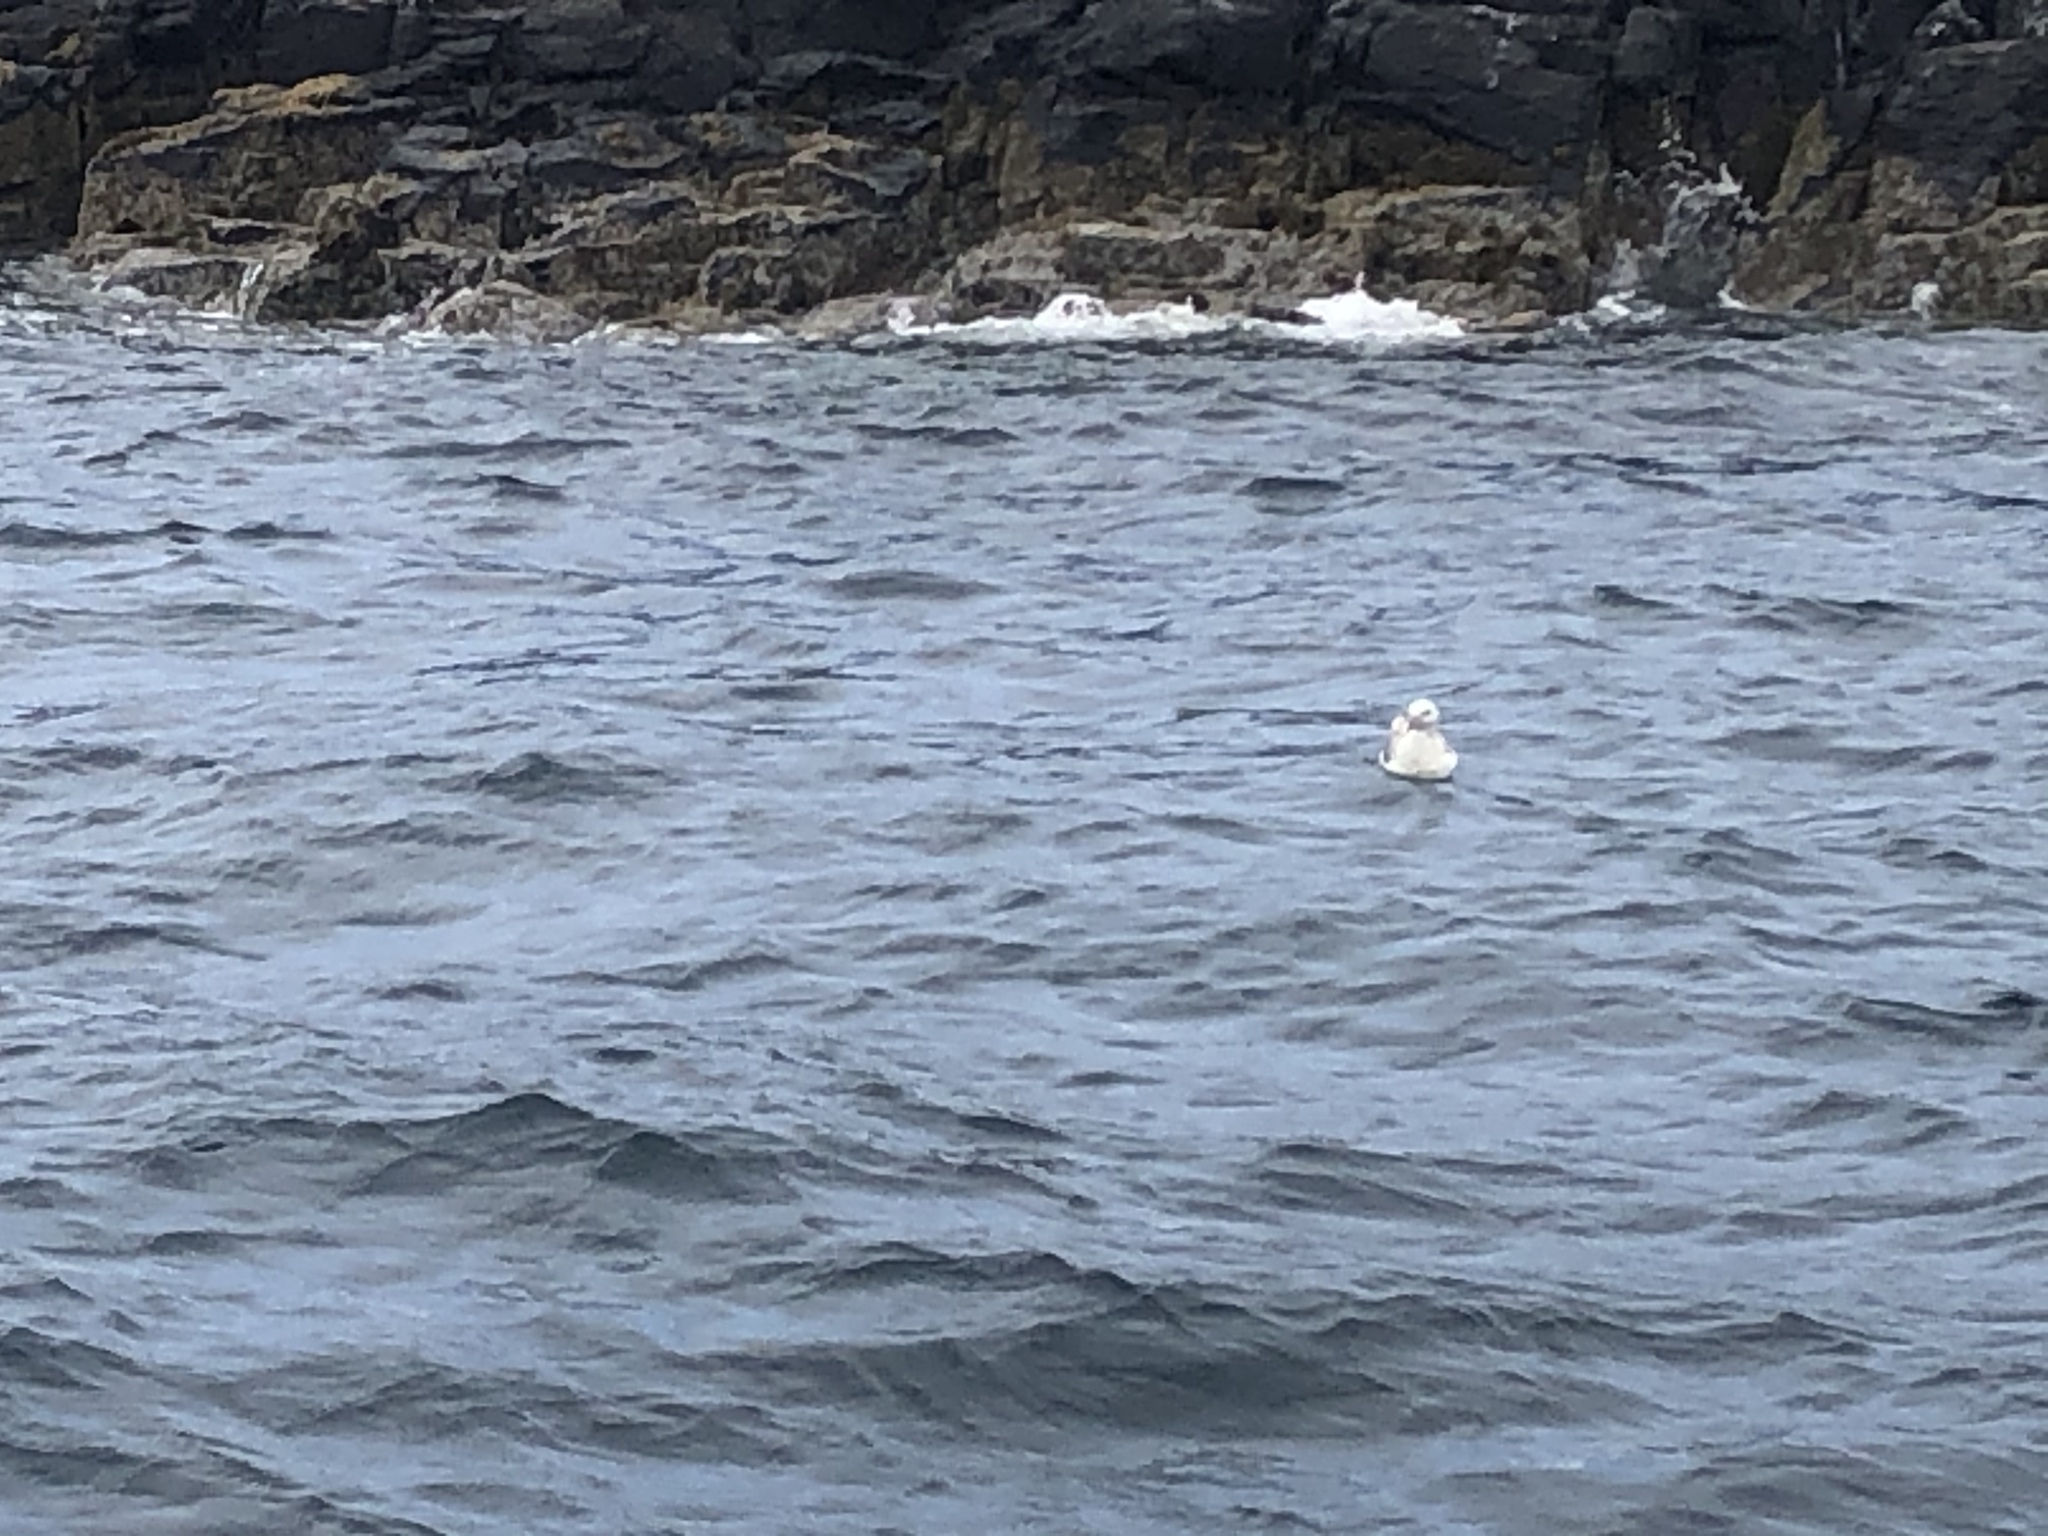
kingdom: Animalia
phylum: Chordata
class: Aves
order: Procellariiformes
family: Procellariidae
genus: Fulmarus
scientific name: Fulmarus glacialis
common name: Northern fulmar
